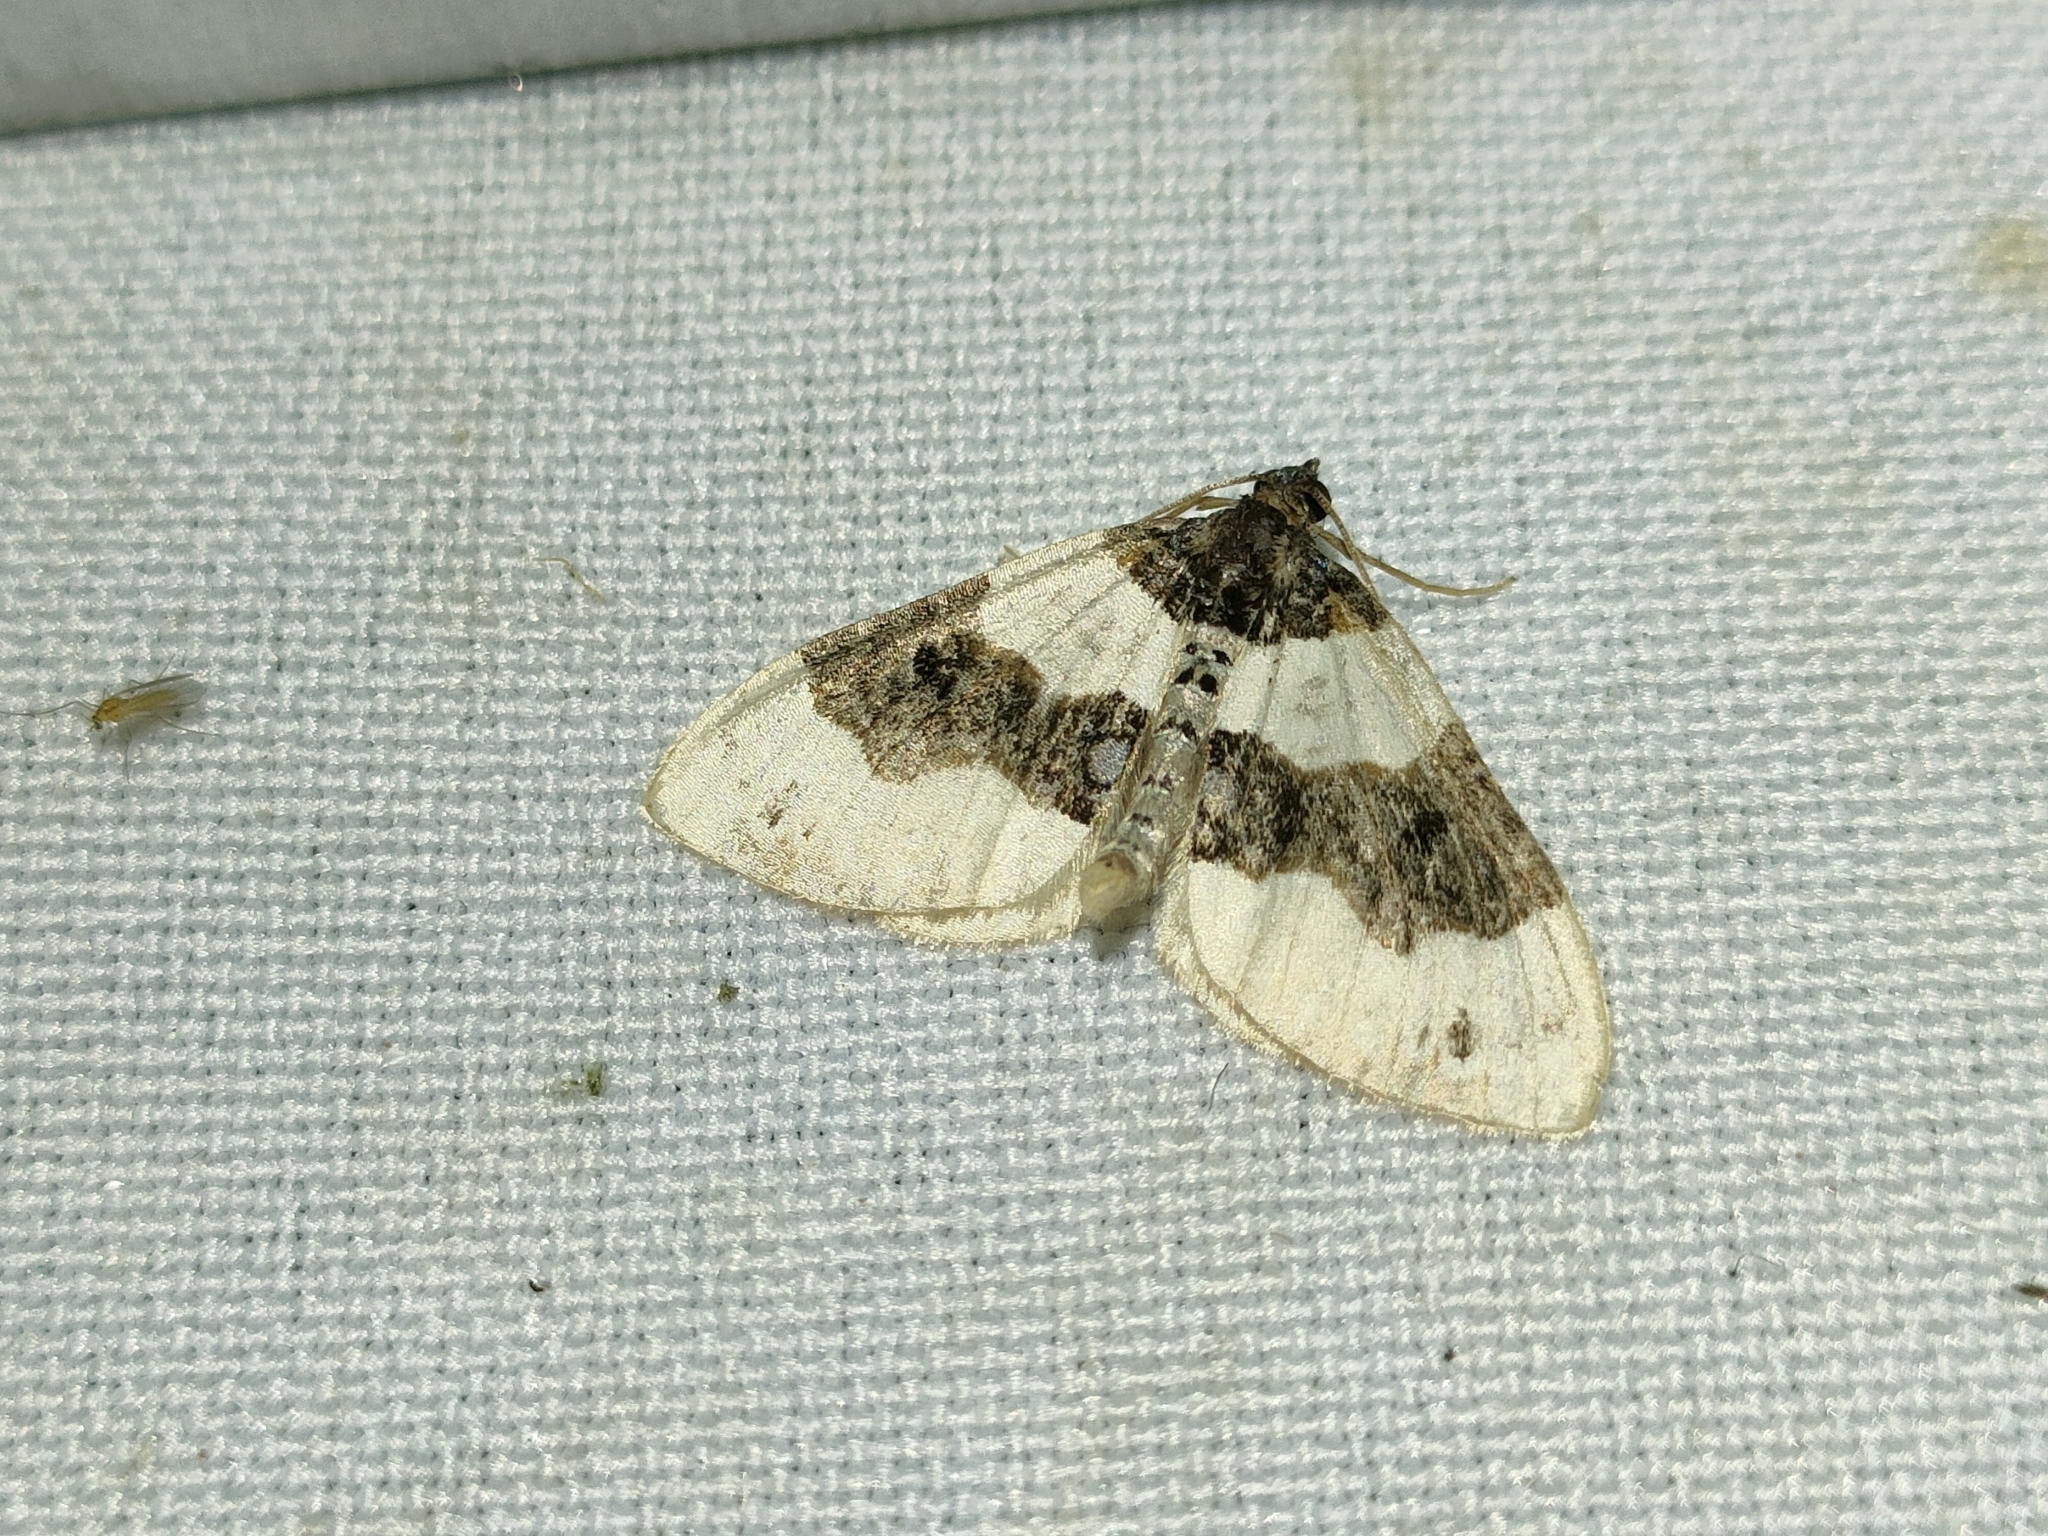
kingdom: Animalia
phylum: Arthropoda
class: Insecta
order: Lepidoptera
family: Geometridae
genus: Cosmorhoe
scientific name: Cosmorhoe ocellata
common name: Purple bar
